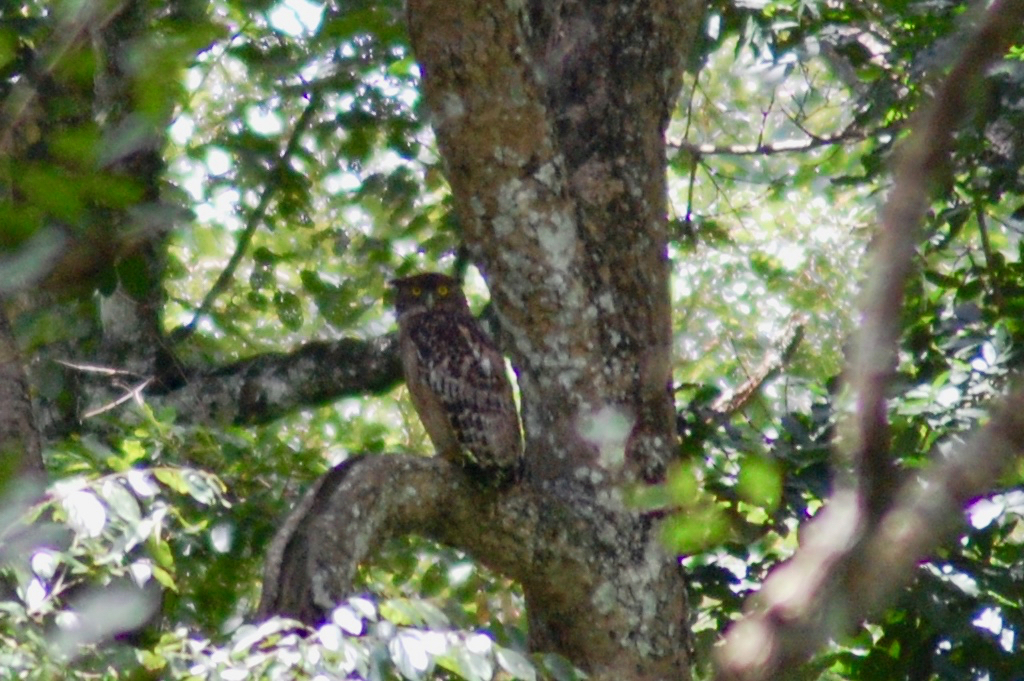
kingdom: Animalia
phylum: Chordata
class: Aves
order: Strigiformes
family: Strigidae
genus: Ketupa
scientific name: Ketupa zeylonensis
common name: Brown fish owl
